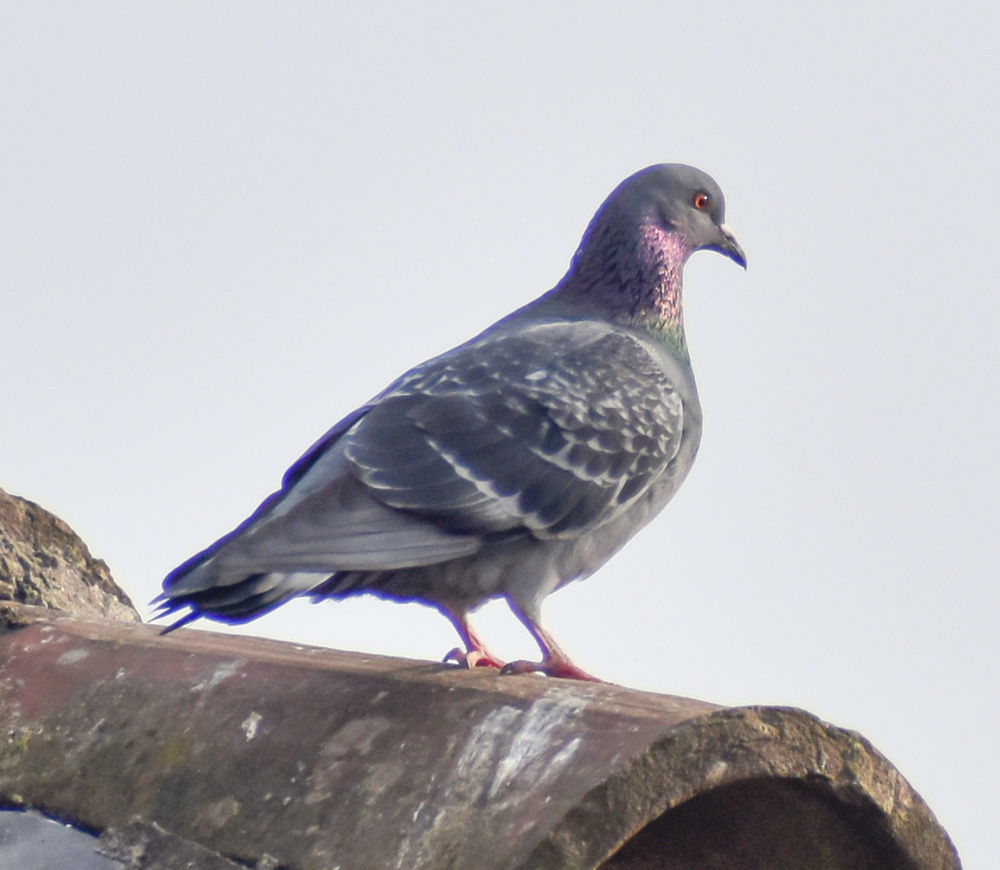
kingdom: Animalia
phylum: Chordata
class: Aves
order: Columbiformes
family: Columbidae
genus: Columba
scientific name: Columba livia
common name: Rock pigeon
